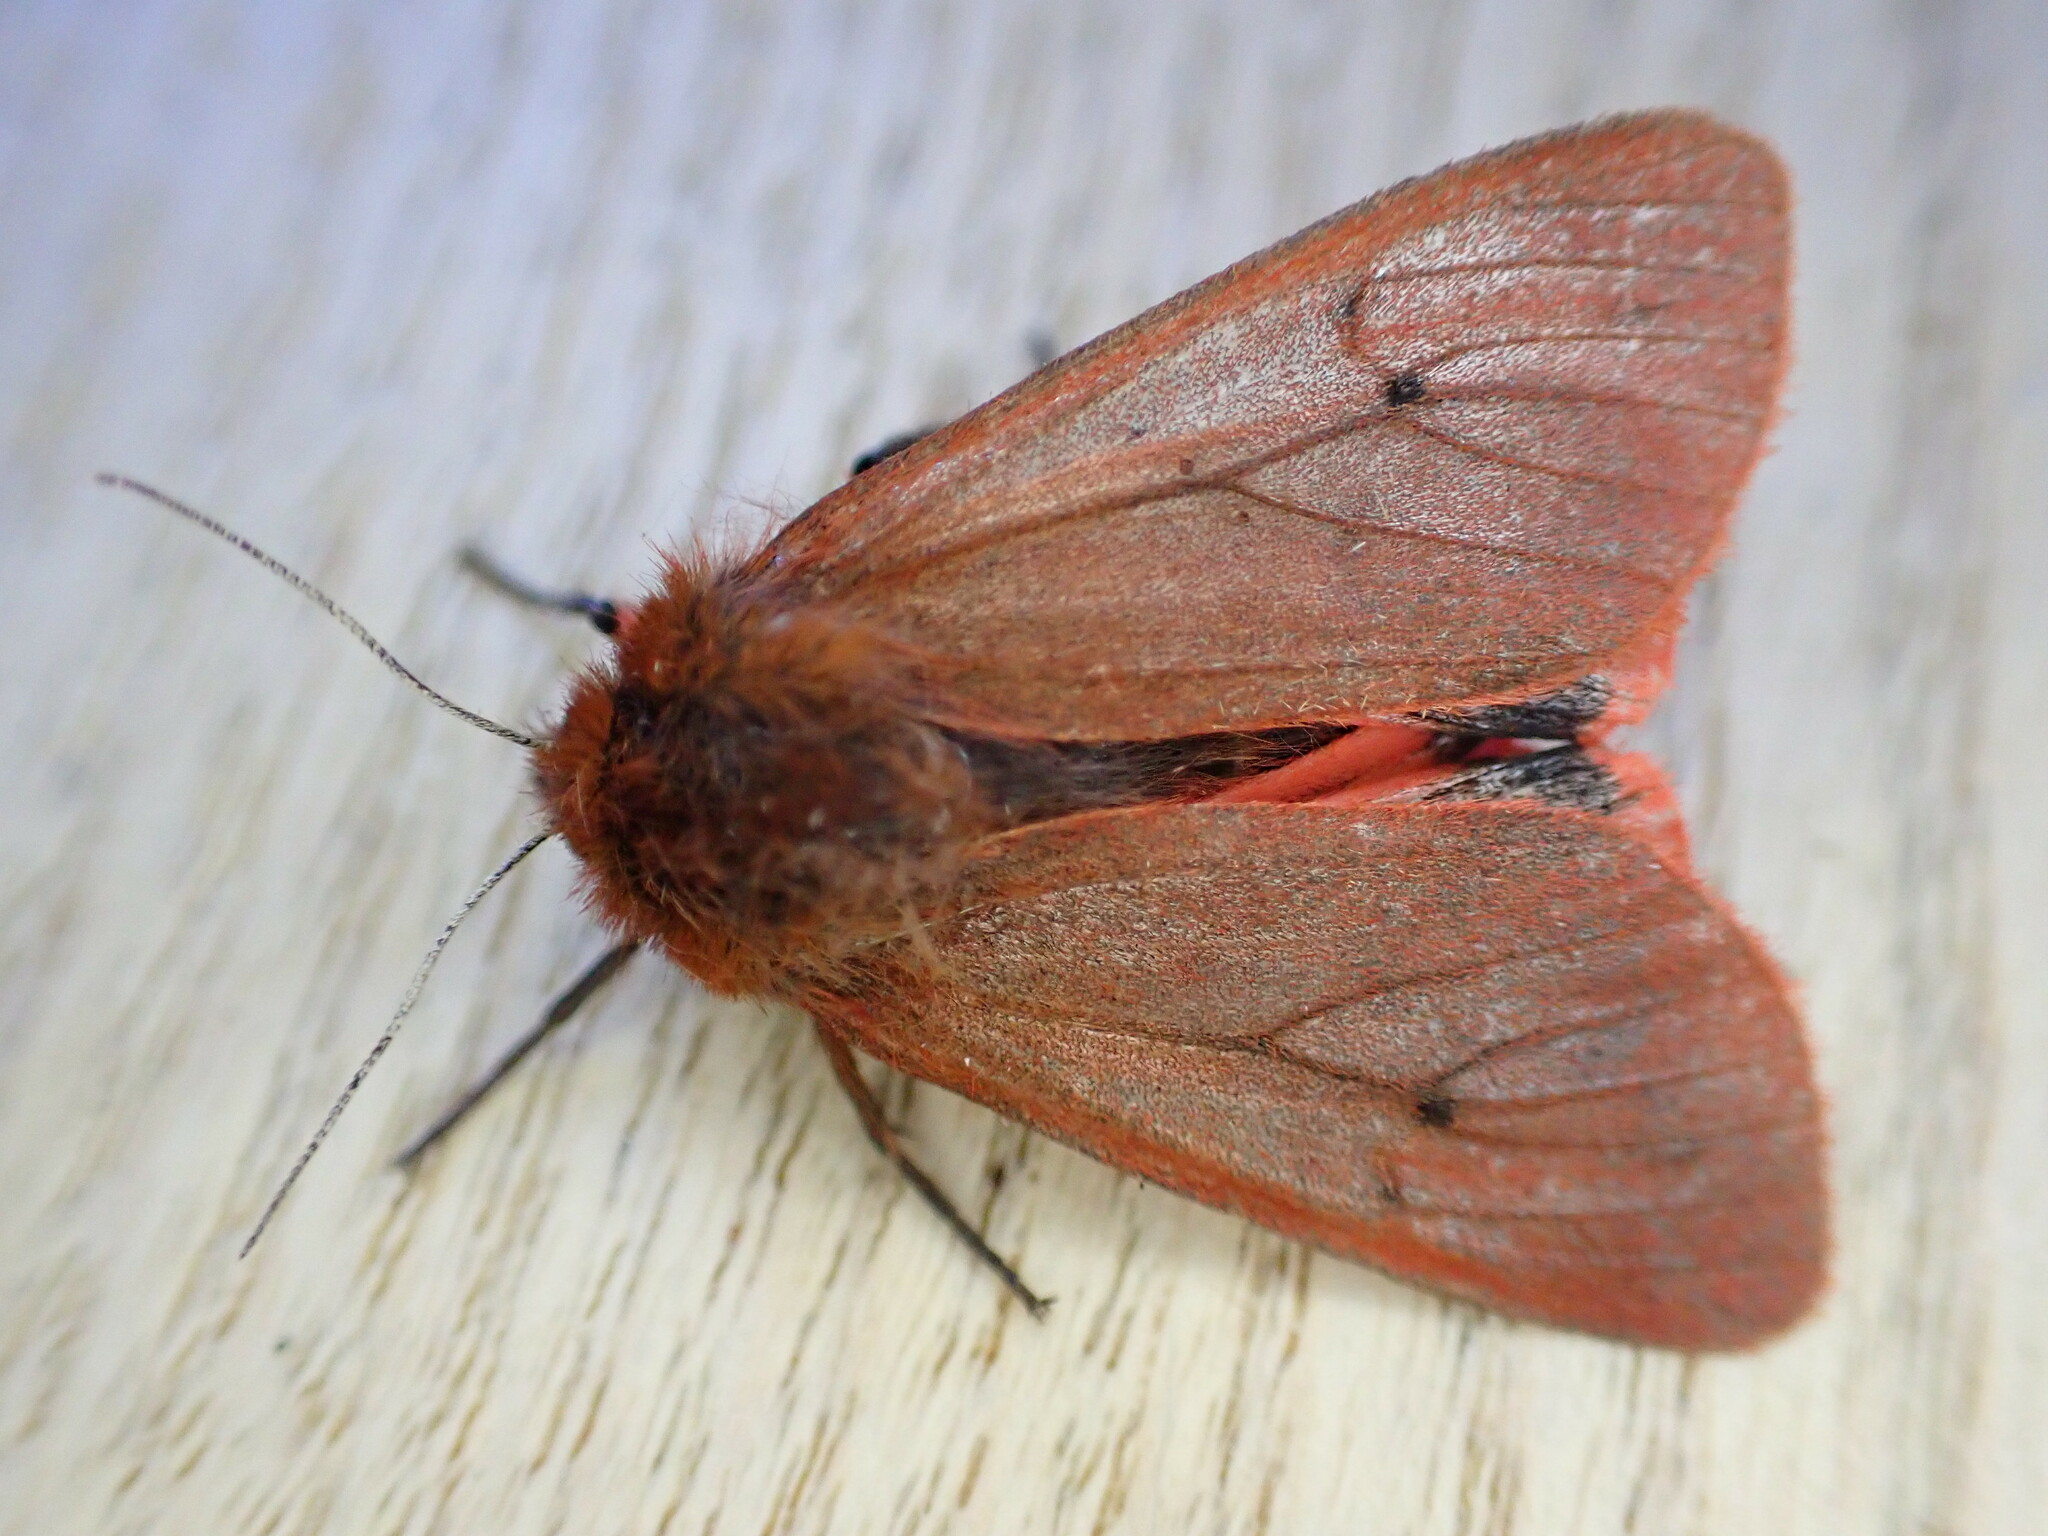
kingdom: Animalia
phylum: Arthropoda
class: Insecta
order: Lepidoptera
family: Erebidae
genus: Phragmatobia
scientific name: Phragmatobia fuliginosa
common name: Ruby tiger
